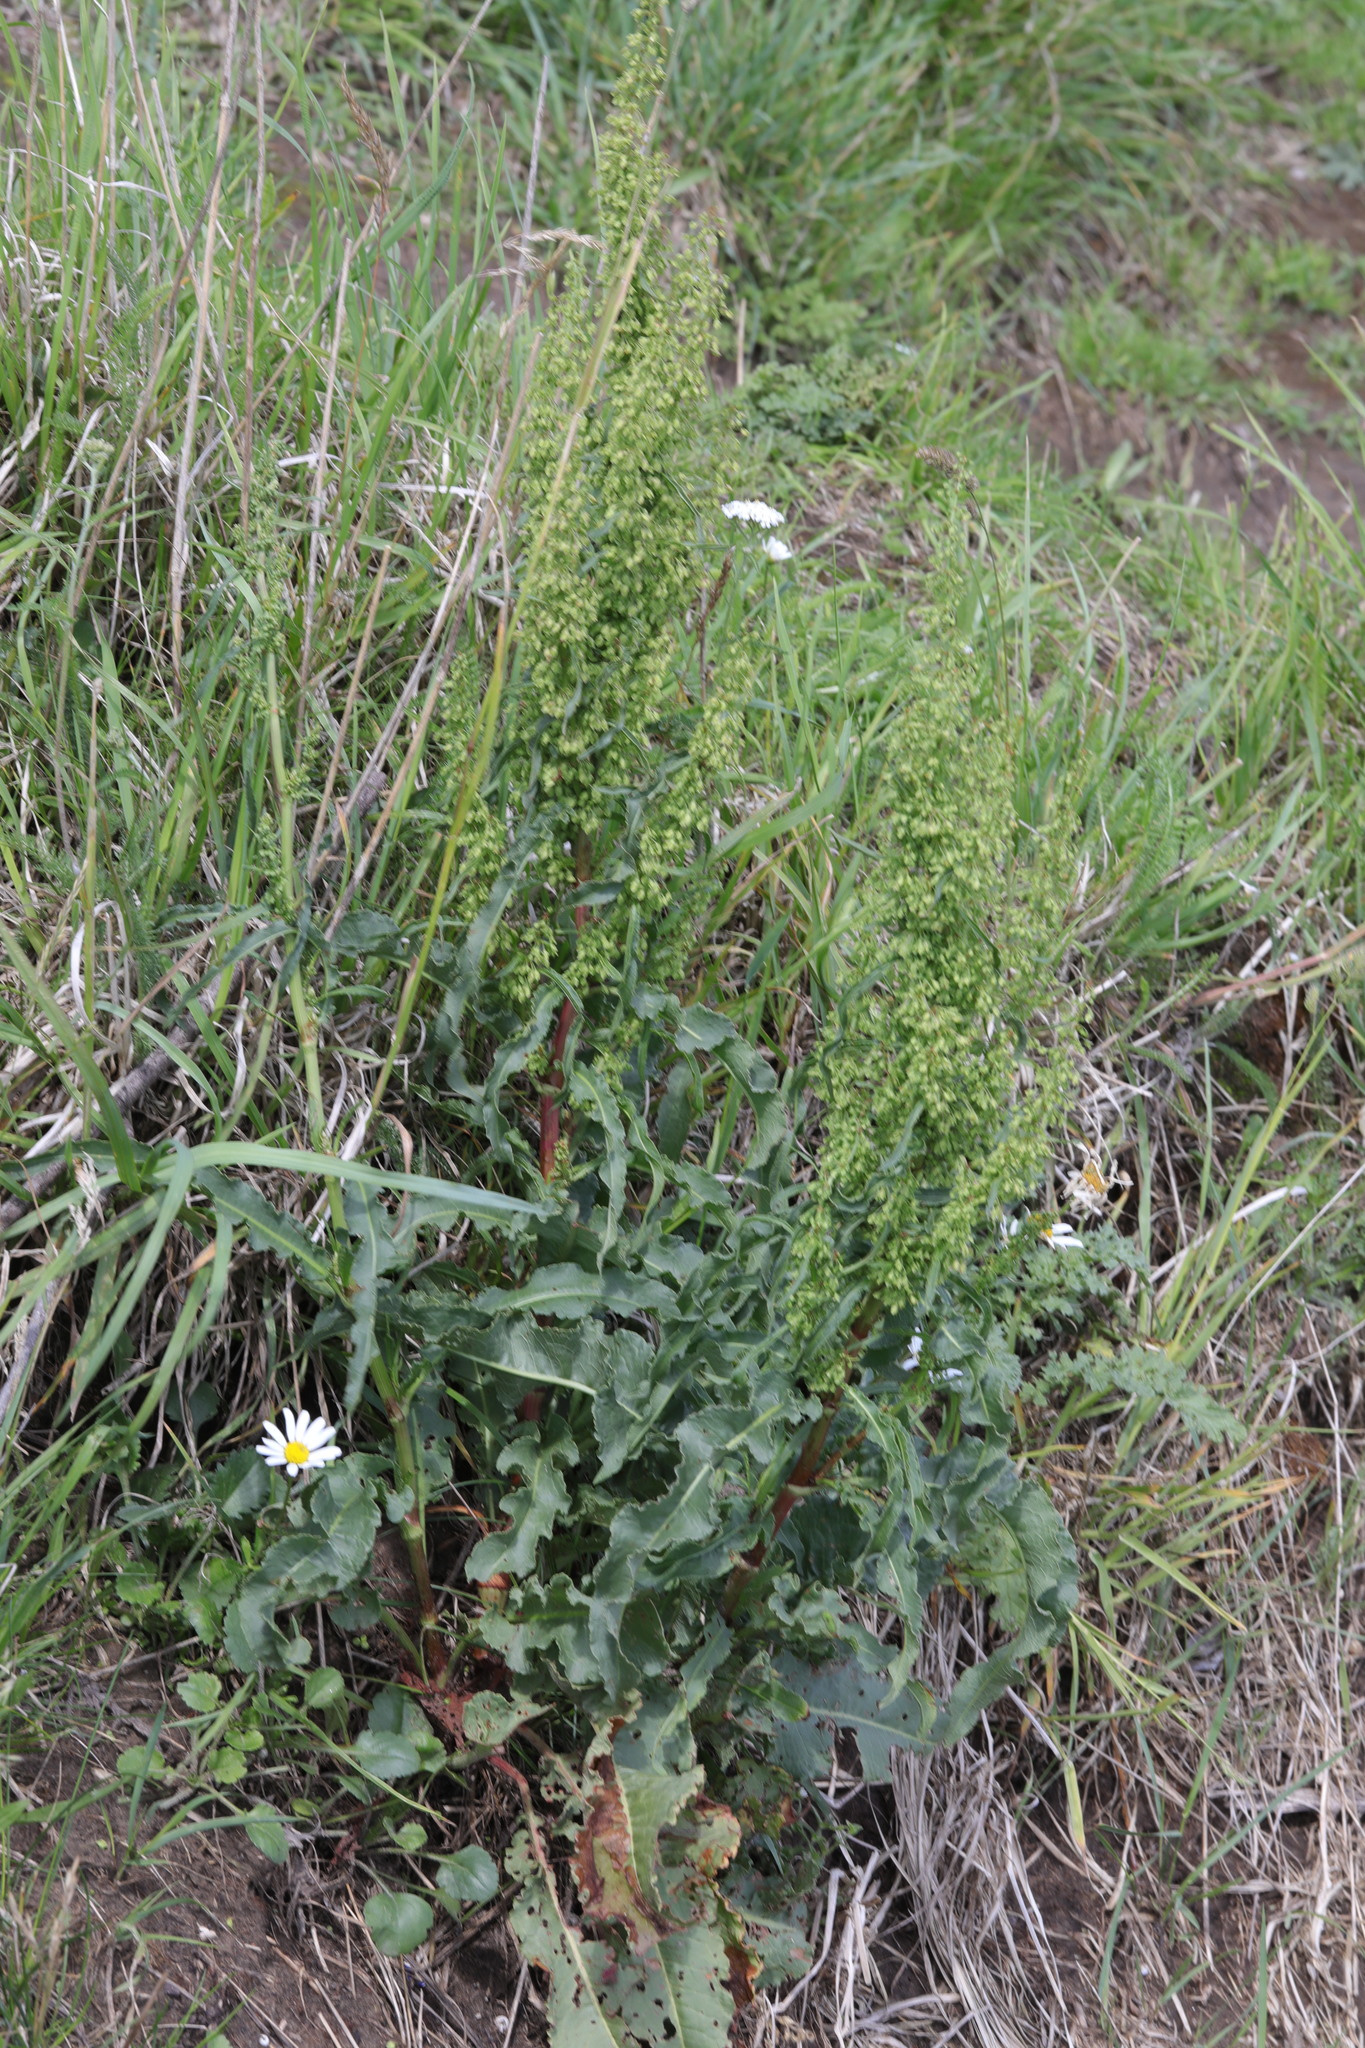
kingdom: Plantae
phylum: Tracheophyta
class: Magnoliopsida
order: Caryophyllales
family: Polygonaceae
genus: Rumex
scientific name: Rumex crispus
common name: Curled dock
